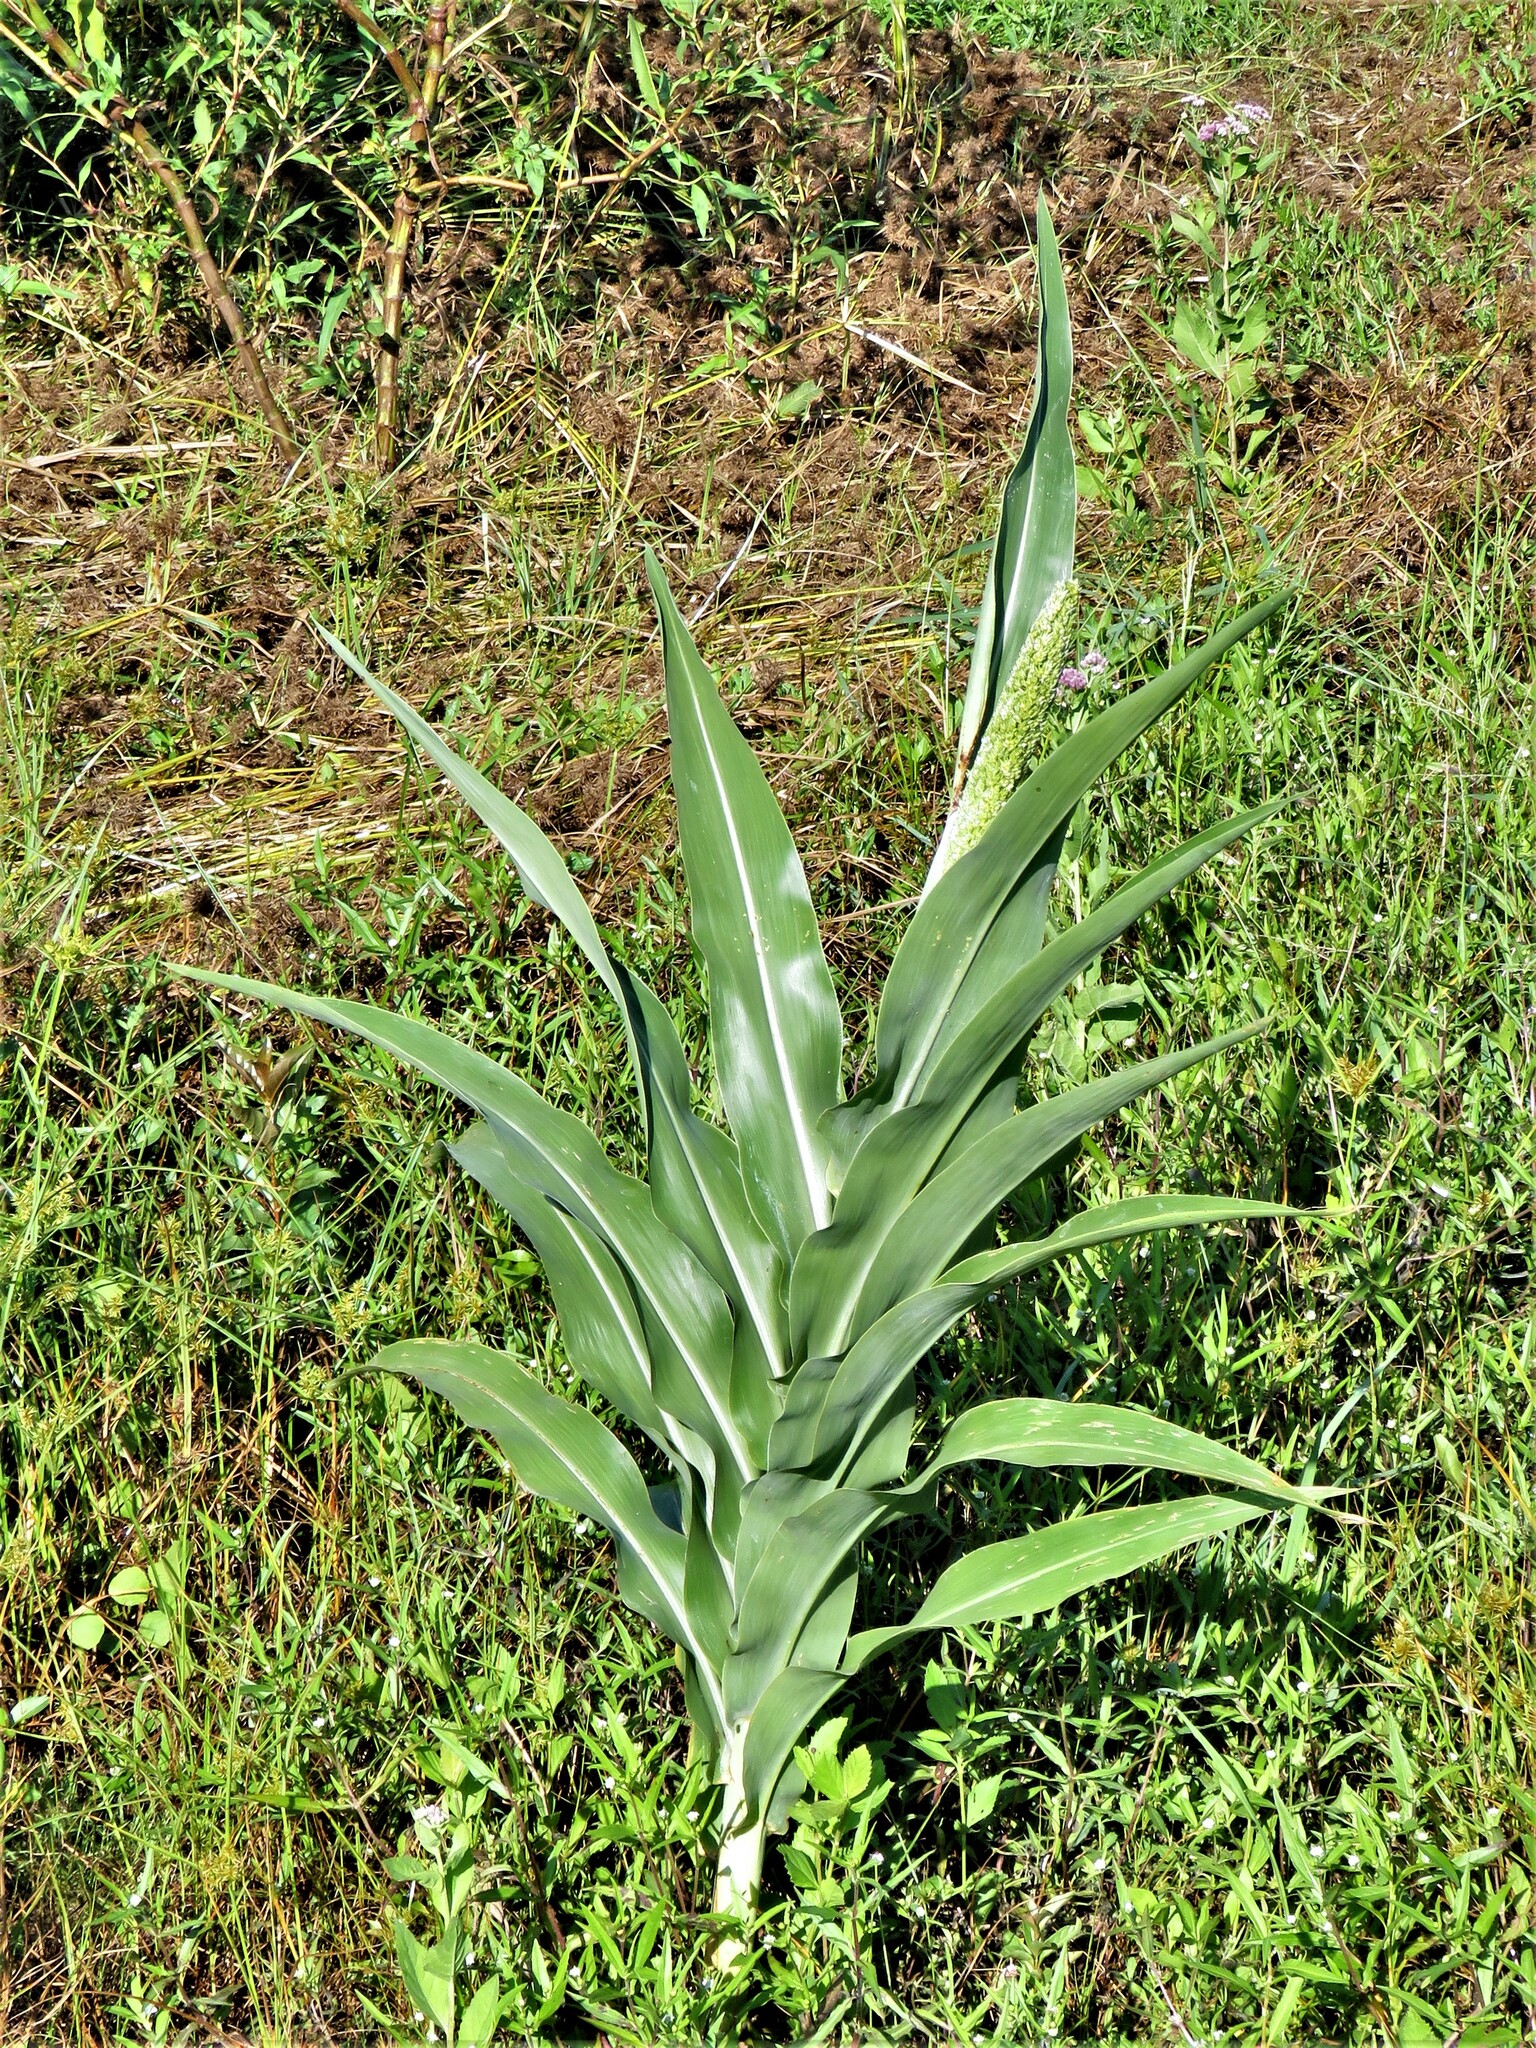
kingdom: Plantae
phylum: Tracheophyta
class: Liliopsida
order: Poales
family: Poaceae
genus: Sorghum
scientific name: Sorghum bicolor
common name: Sorghum
